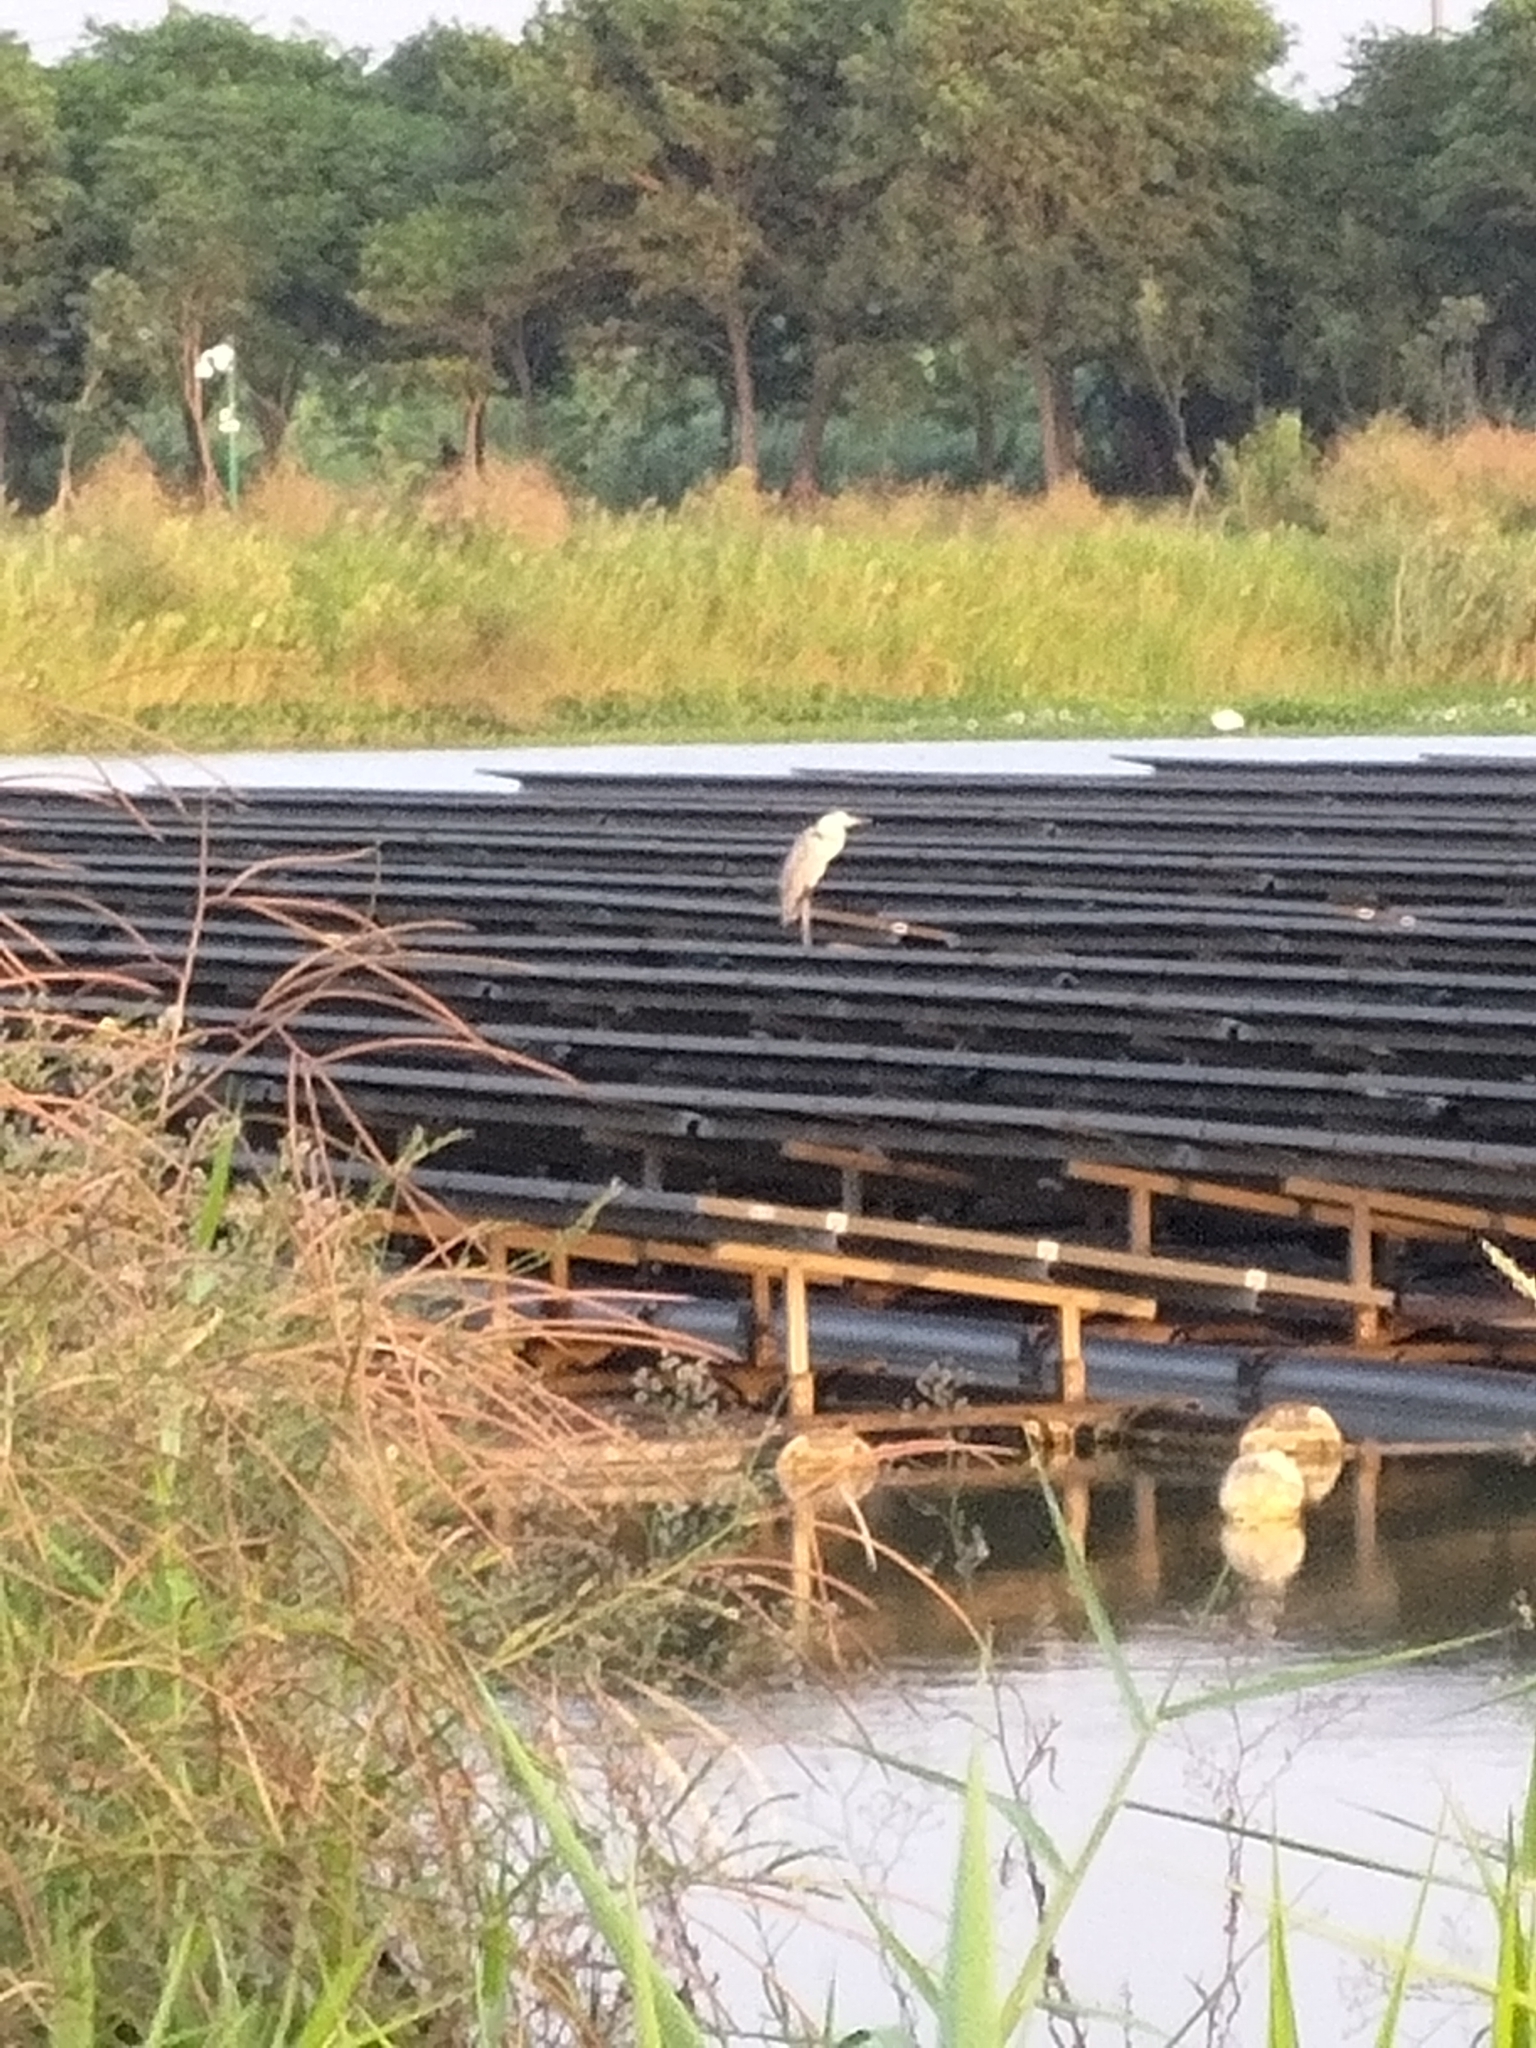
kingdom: Animalia
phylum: Chordata
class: Aves
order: Pelecaniformes
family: Ardeidae
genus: Ardea
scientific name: Ardea cinerea
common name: Grey heron
